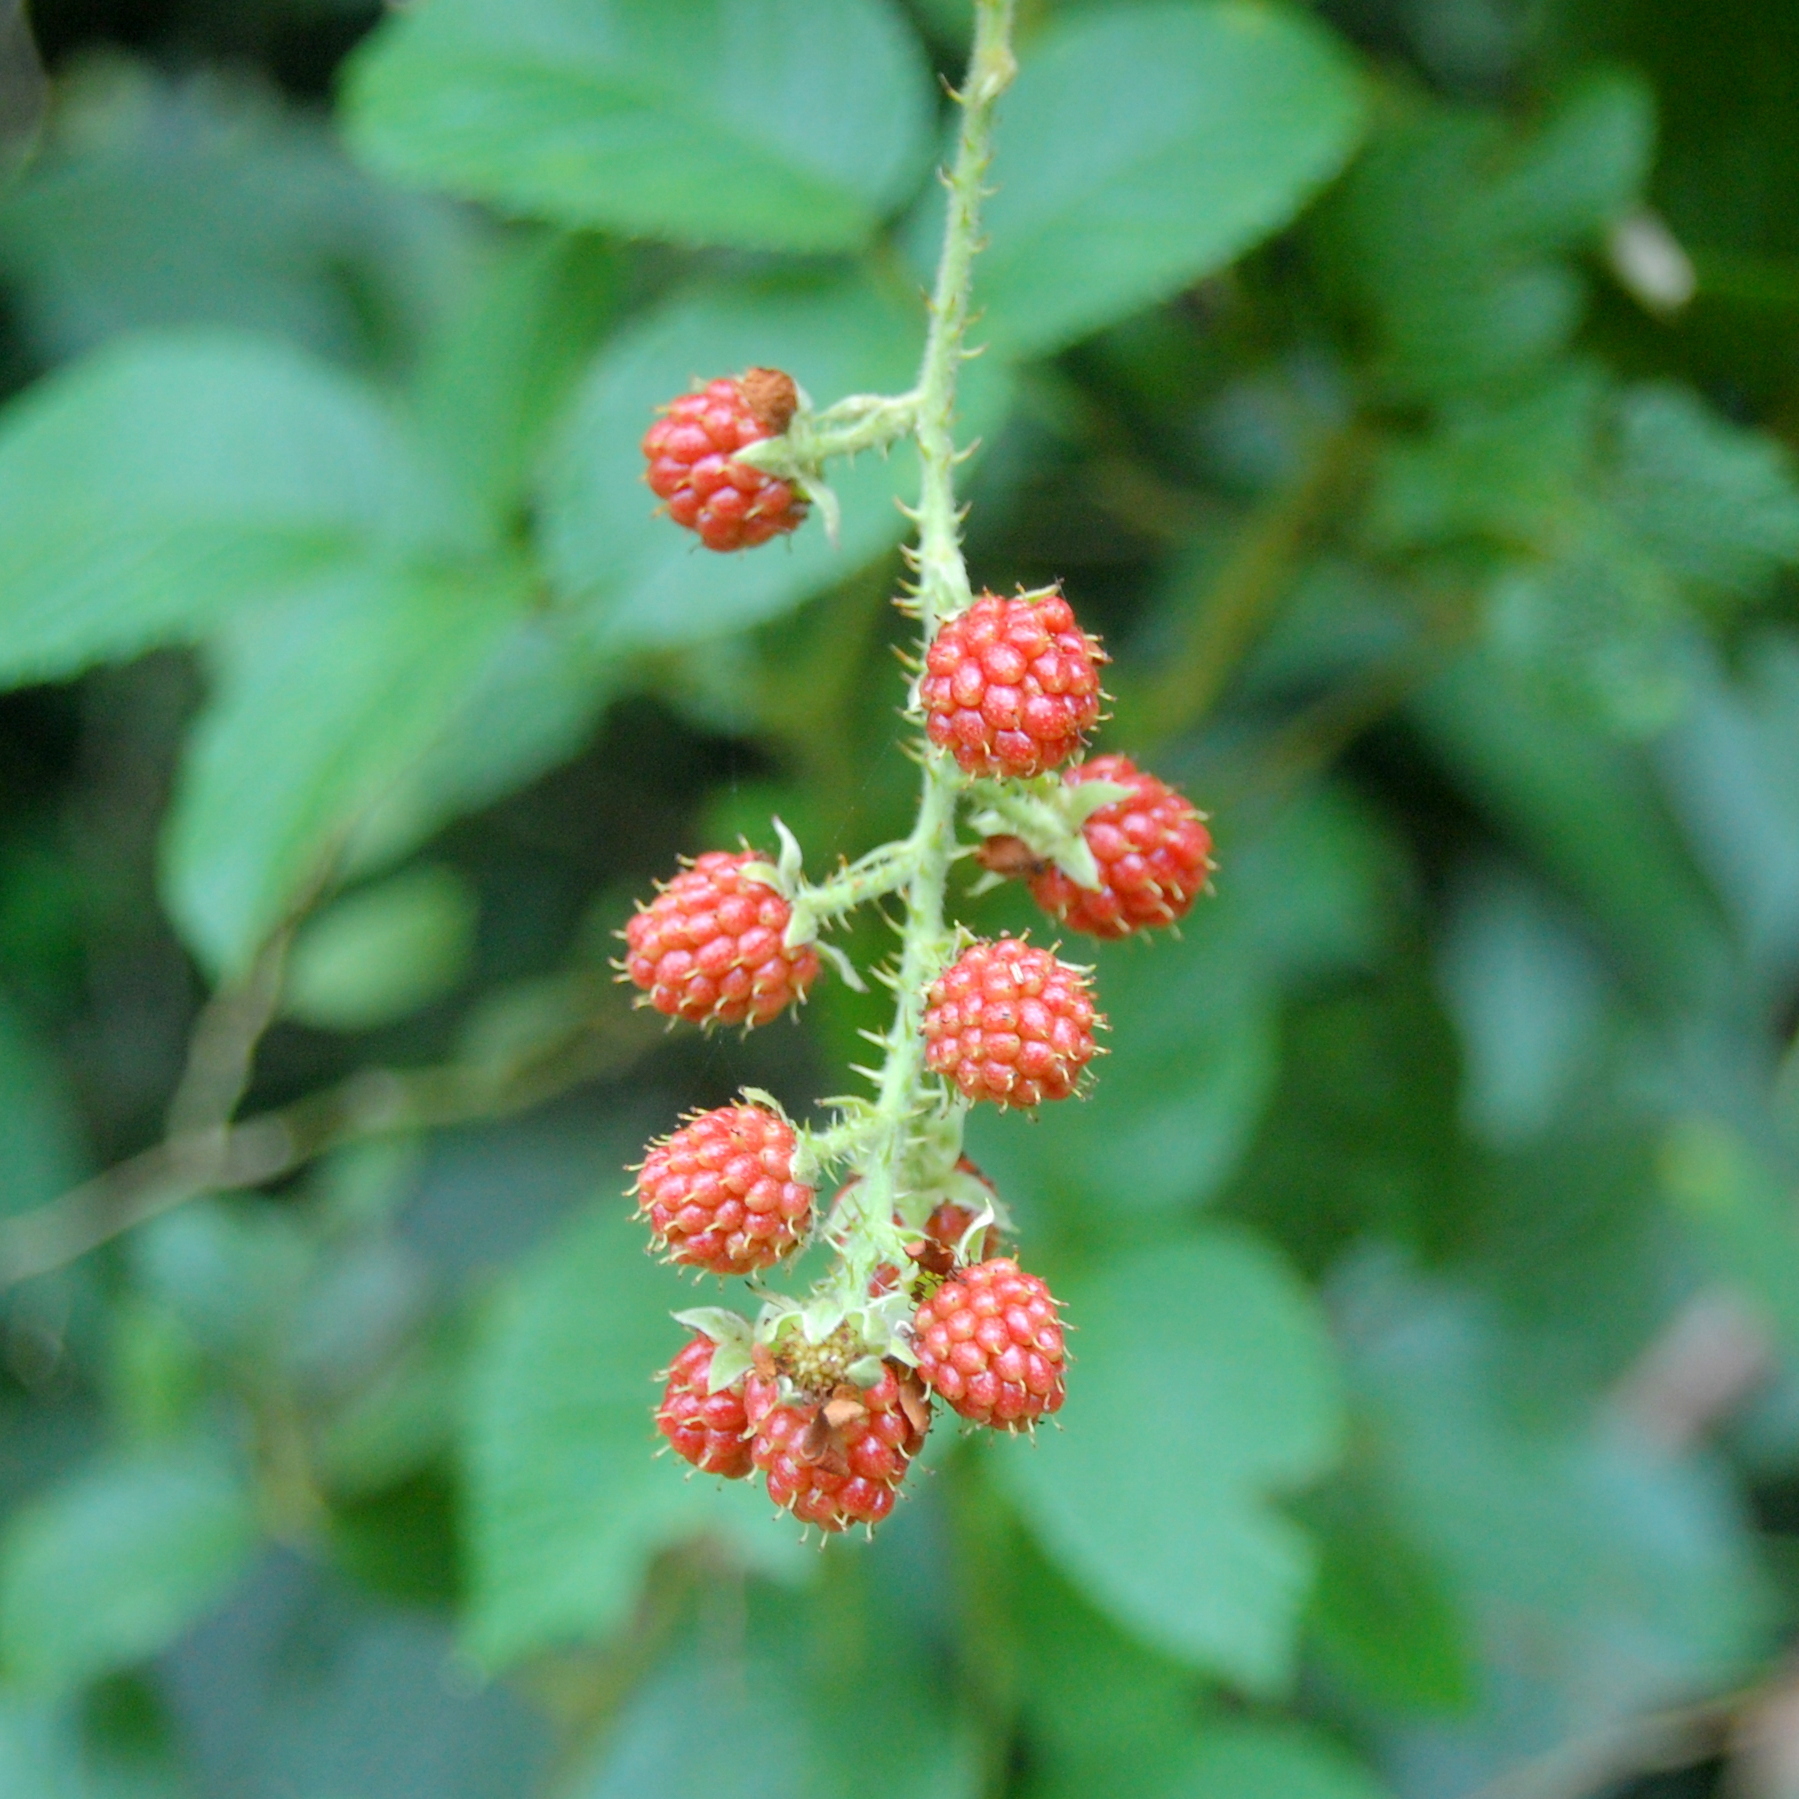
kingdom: Plantae
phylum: Tracheophyta
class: Magnoliopsida
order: Rosales
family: Rosaceae
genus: Rubus
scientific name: Rubus sellowii
